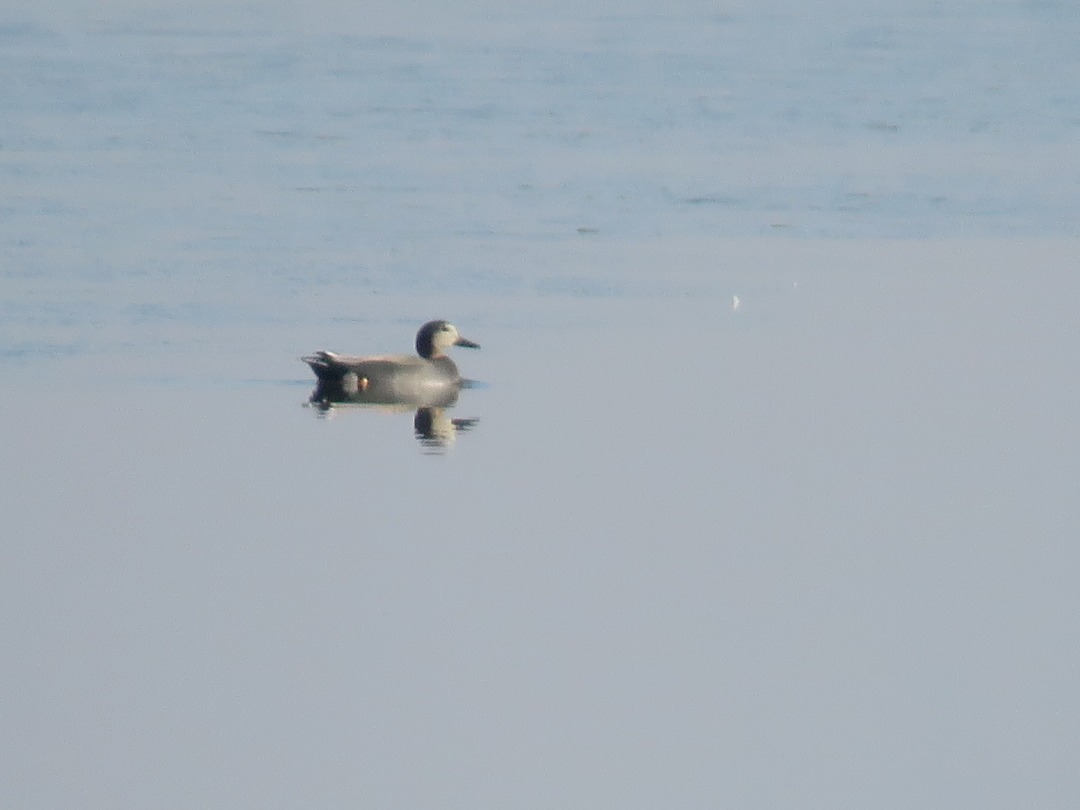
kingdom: Animalia
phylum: Chordata
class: Aves
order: Anseriformes
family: Anatidae
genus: Mareca
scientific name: Mareca strepera
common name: Gadwall
